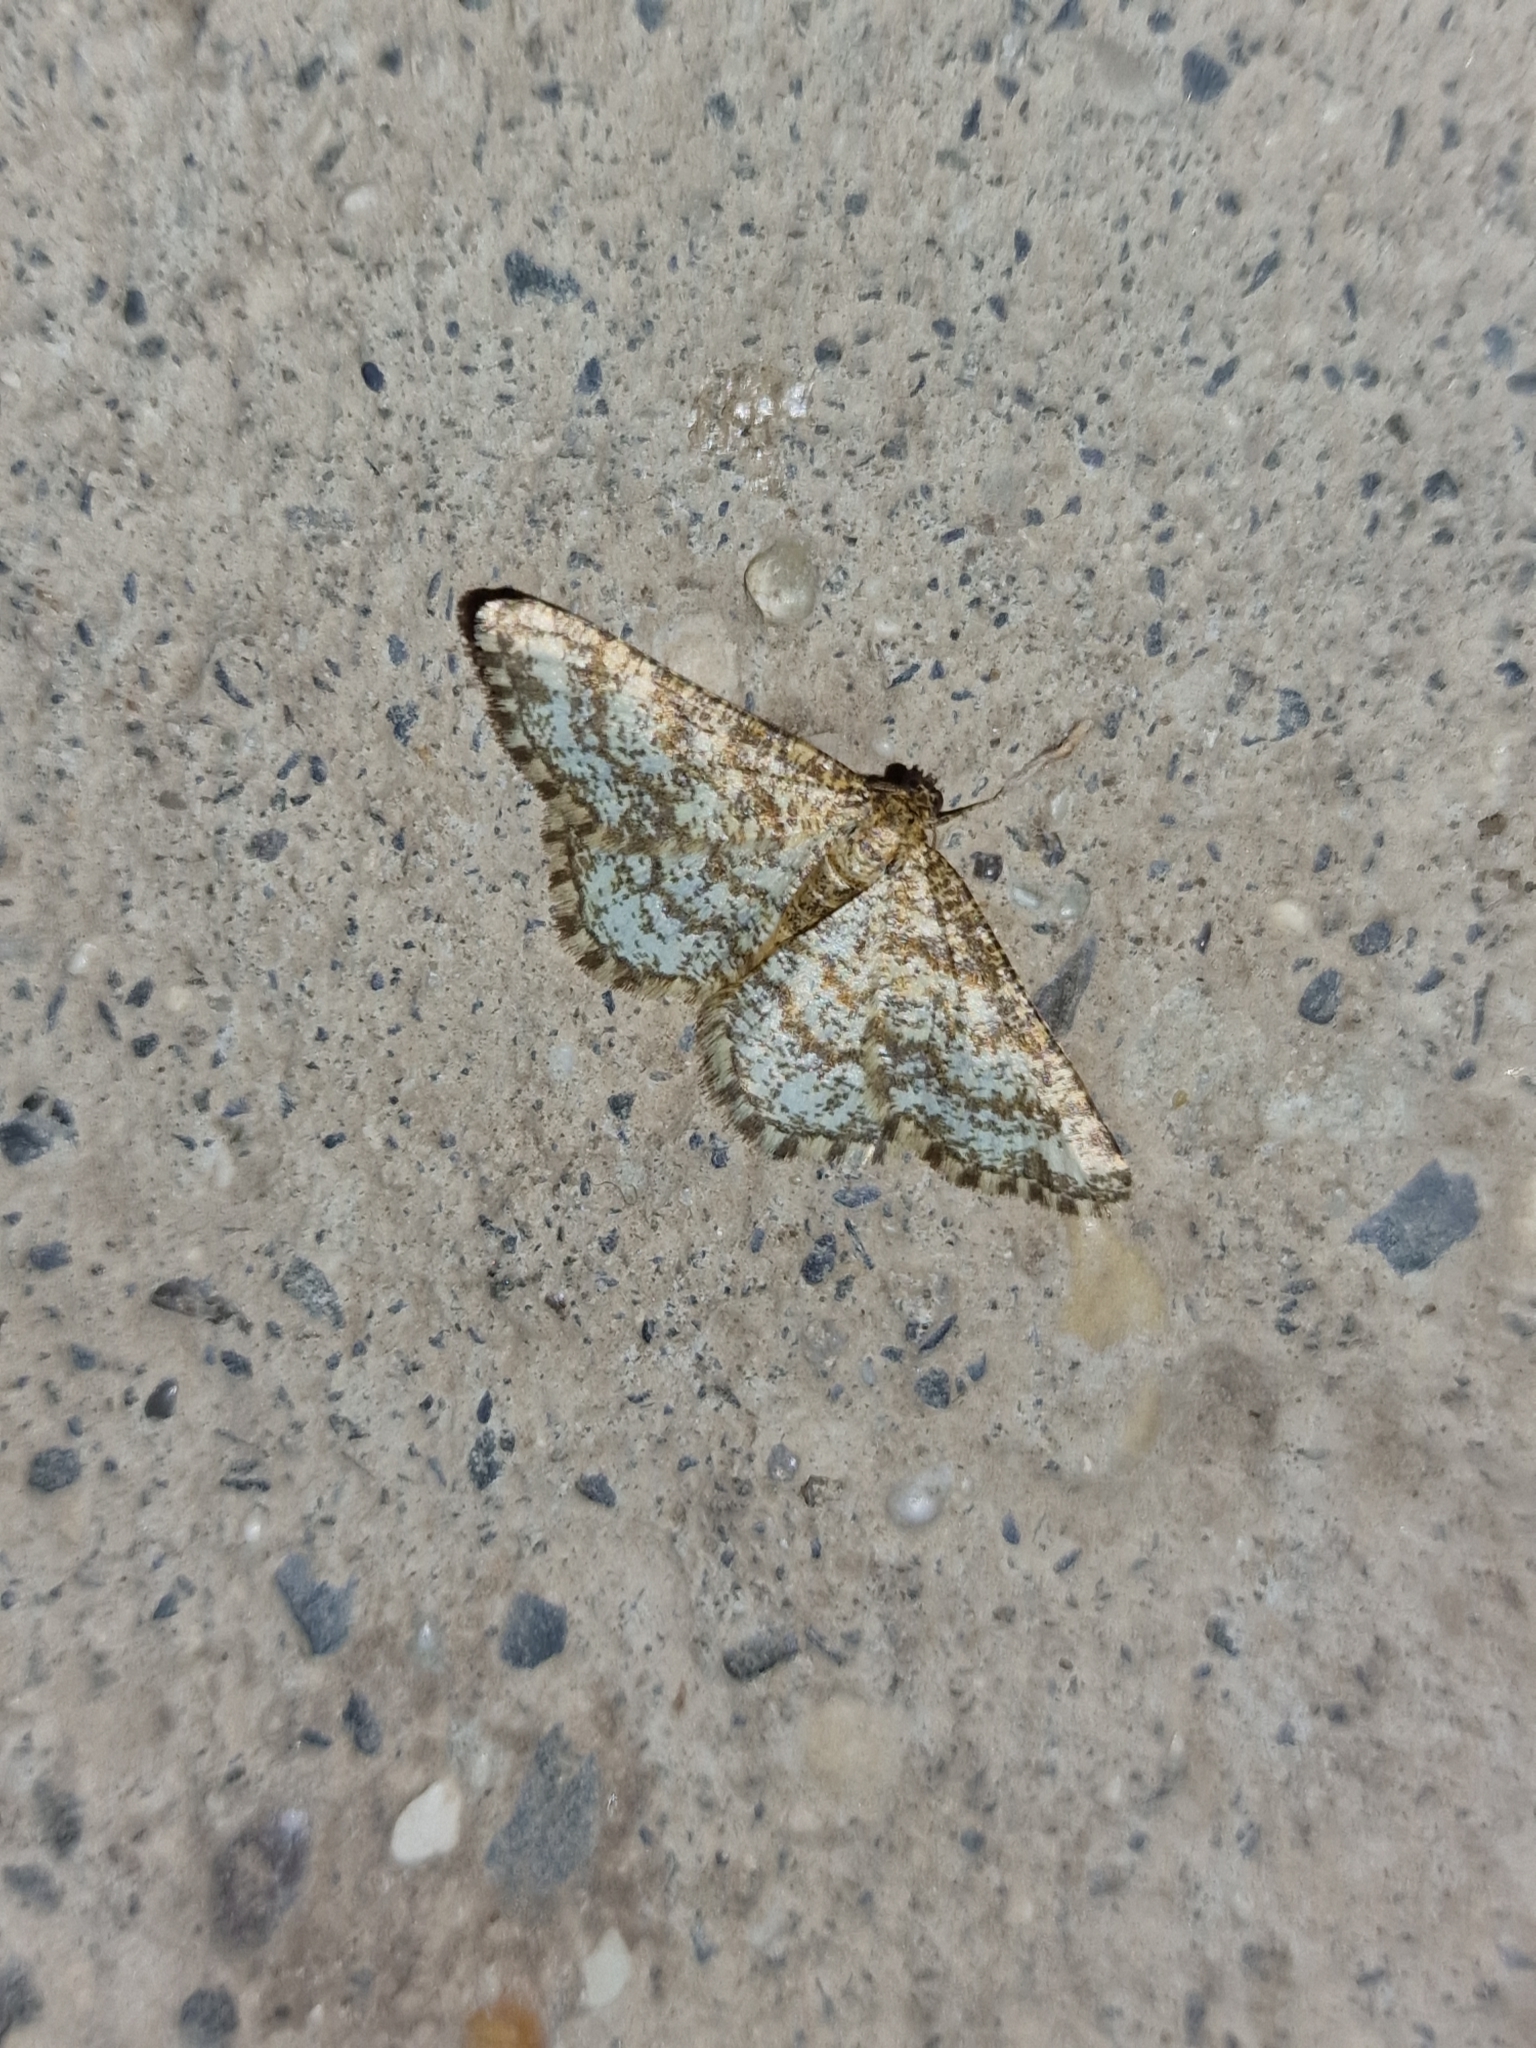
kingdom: Animalia
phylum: Arthropoda
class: Insecta
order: Lepidoptera
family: Geometridae
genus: Heliomata
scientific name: Heliomata glarearia
